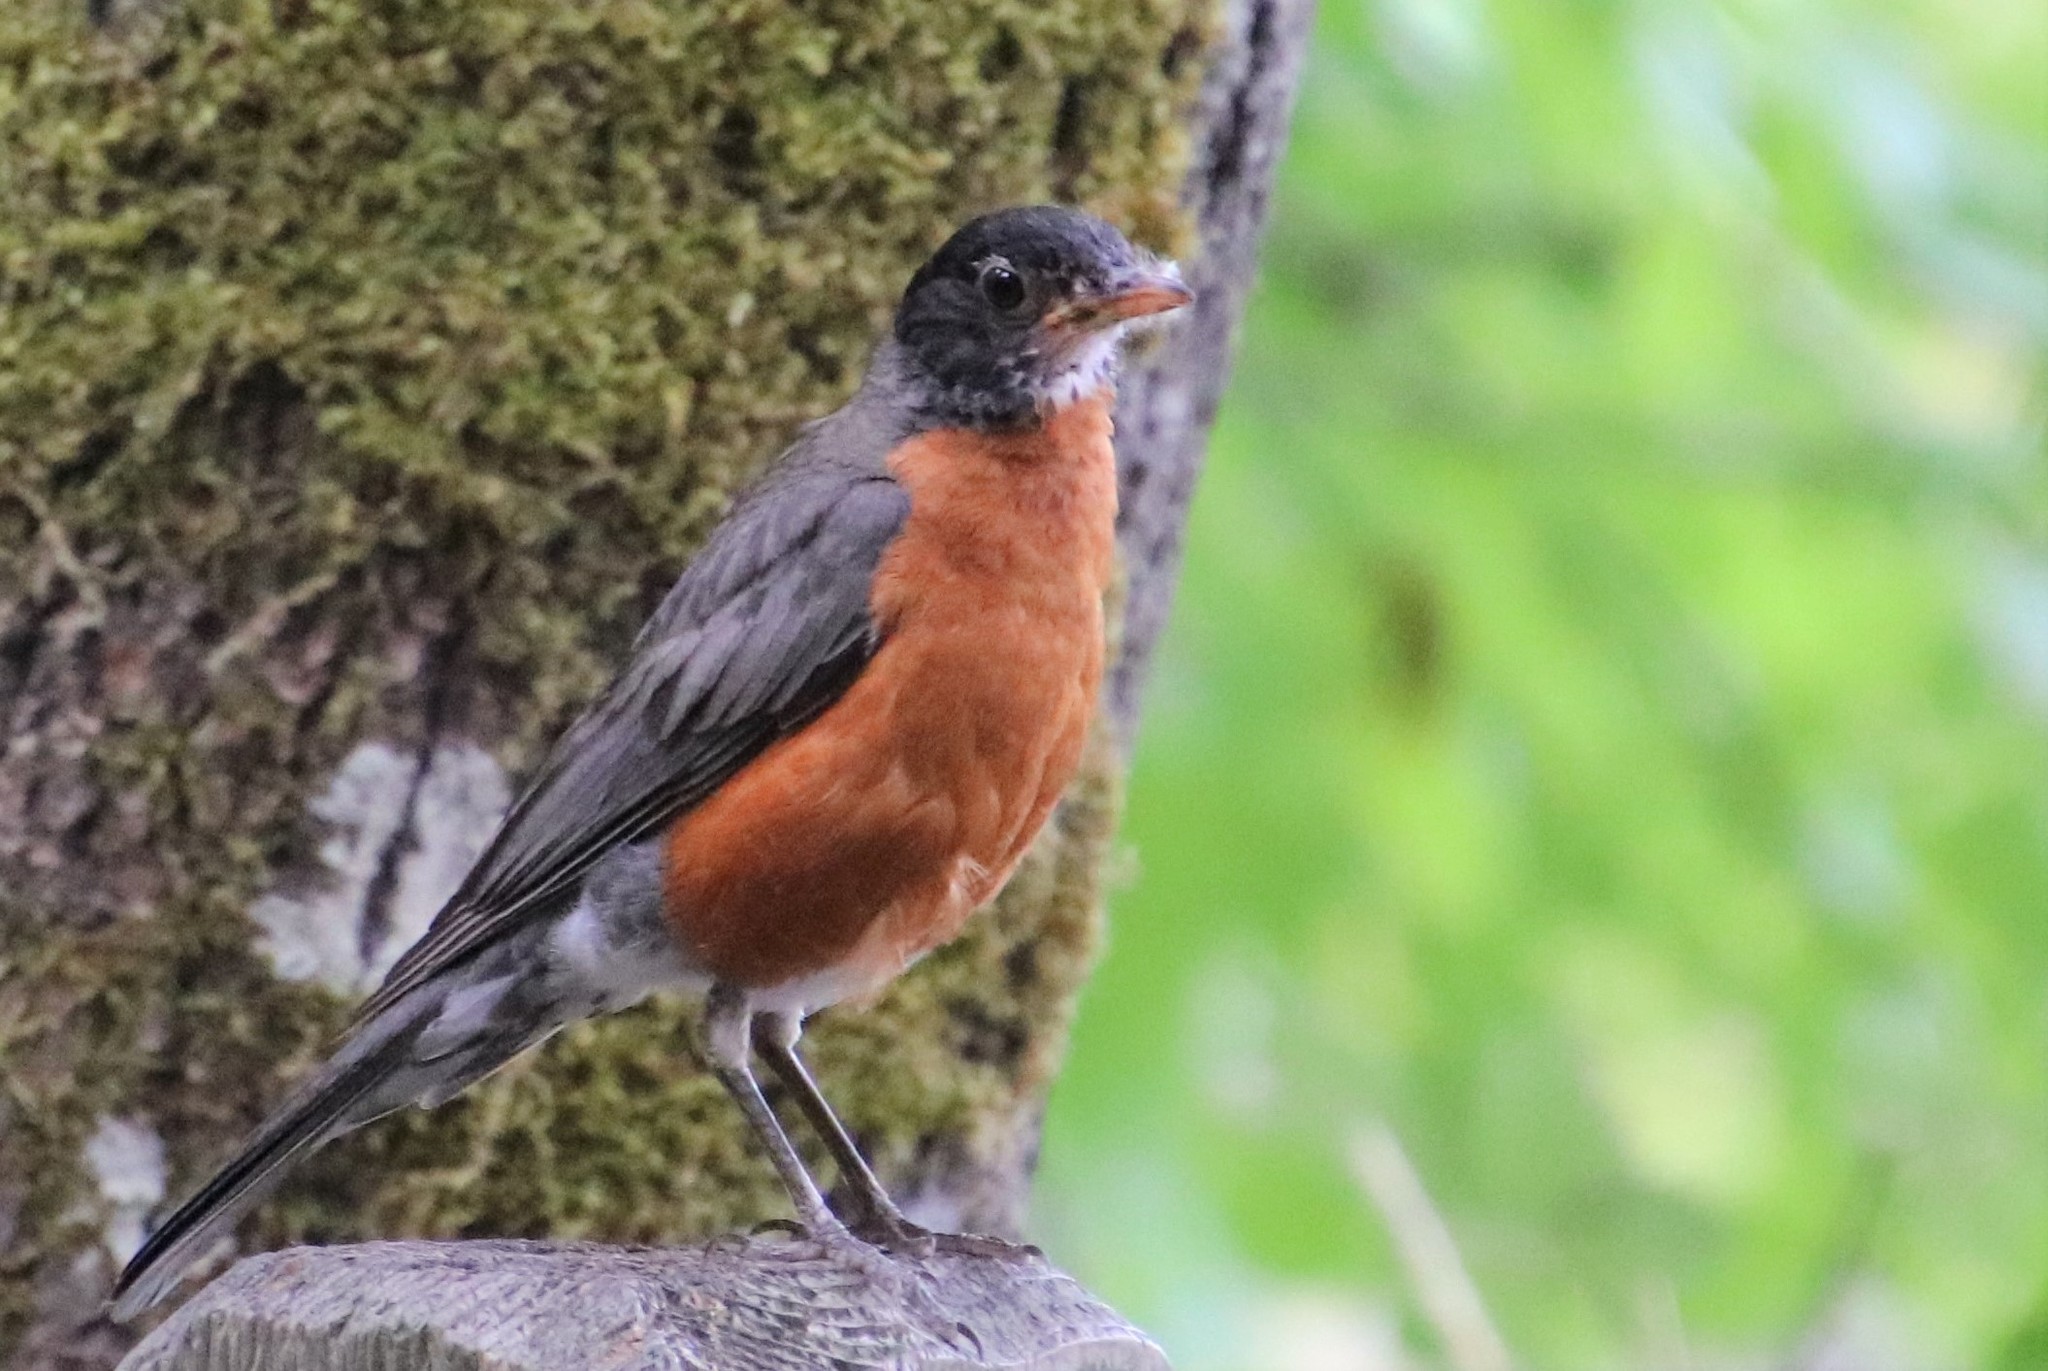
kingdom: Animalia
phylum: Chordata
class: Aves
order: Passeriformes
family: Turdidae
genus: Turdus
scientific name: Turdus migratorius
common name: American robin
